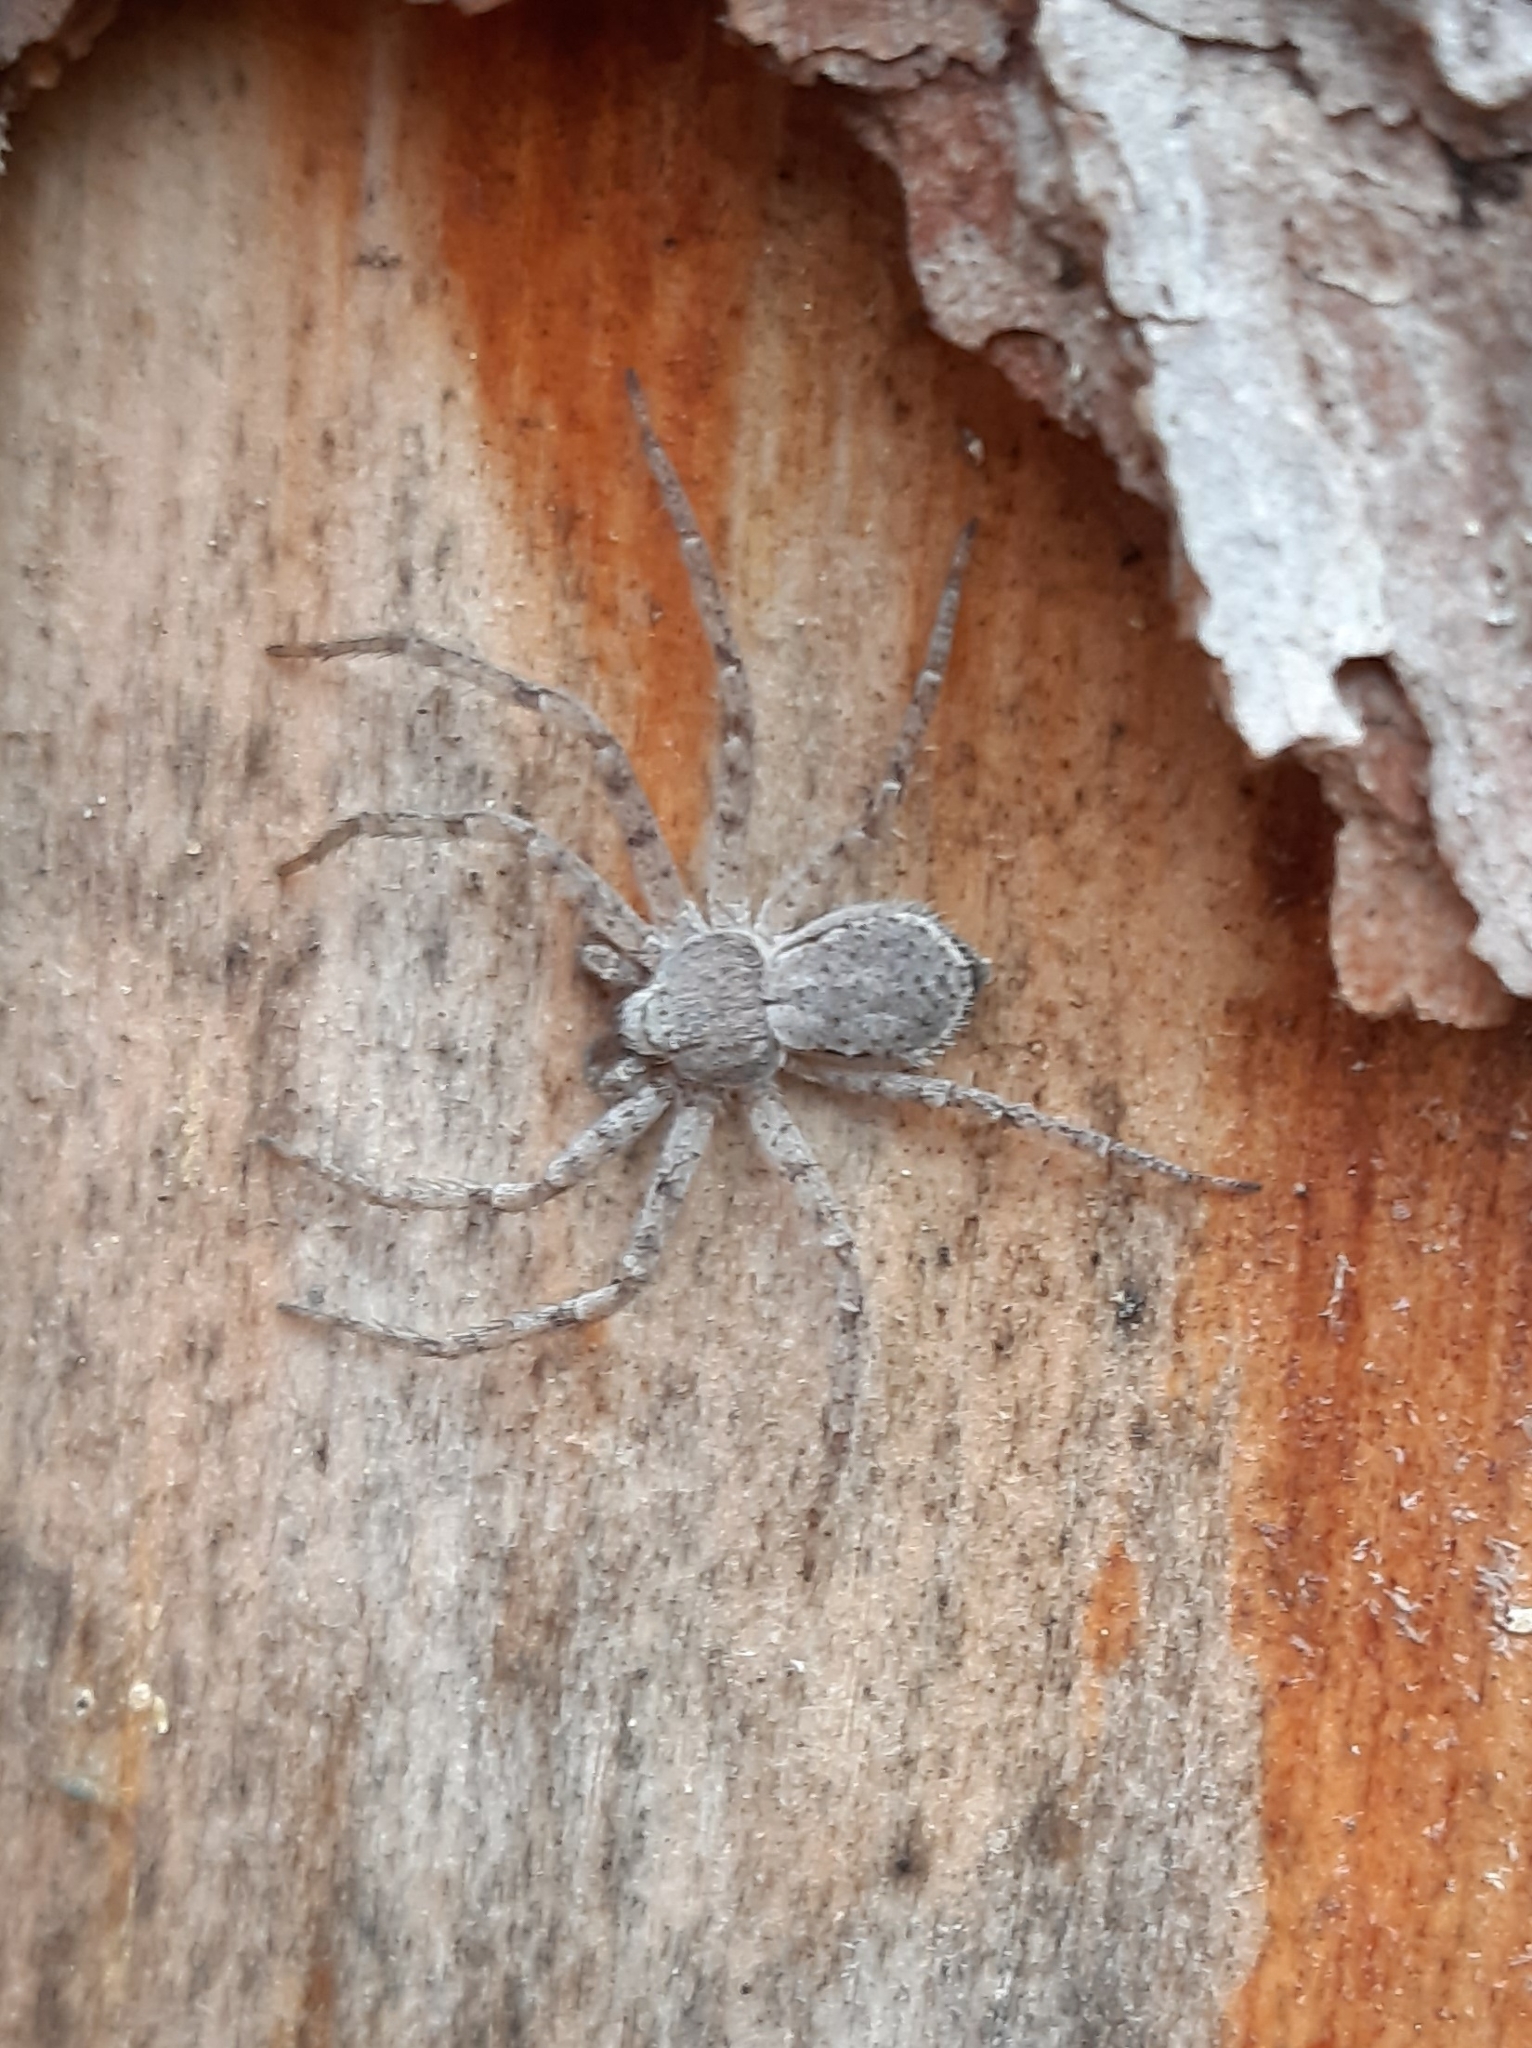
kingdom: Animalia
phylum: Arthropoda
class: Arachnida
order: Araneae
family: Philodromidae
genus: Philodromus
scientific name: Philodromus fuscomarginatus
